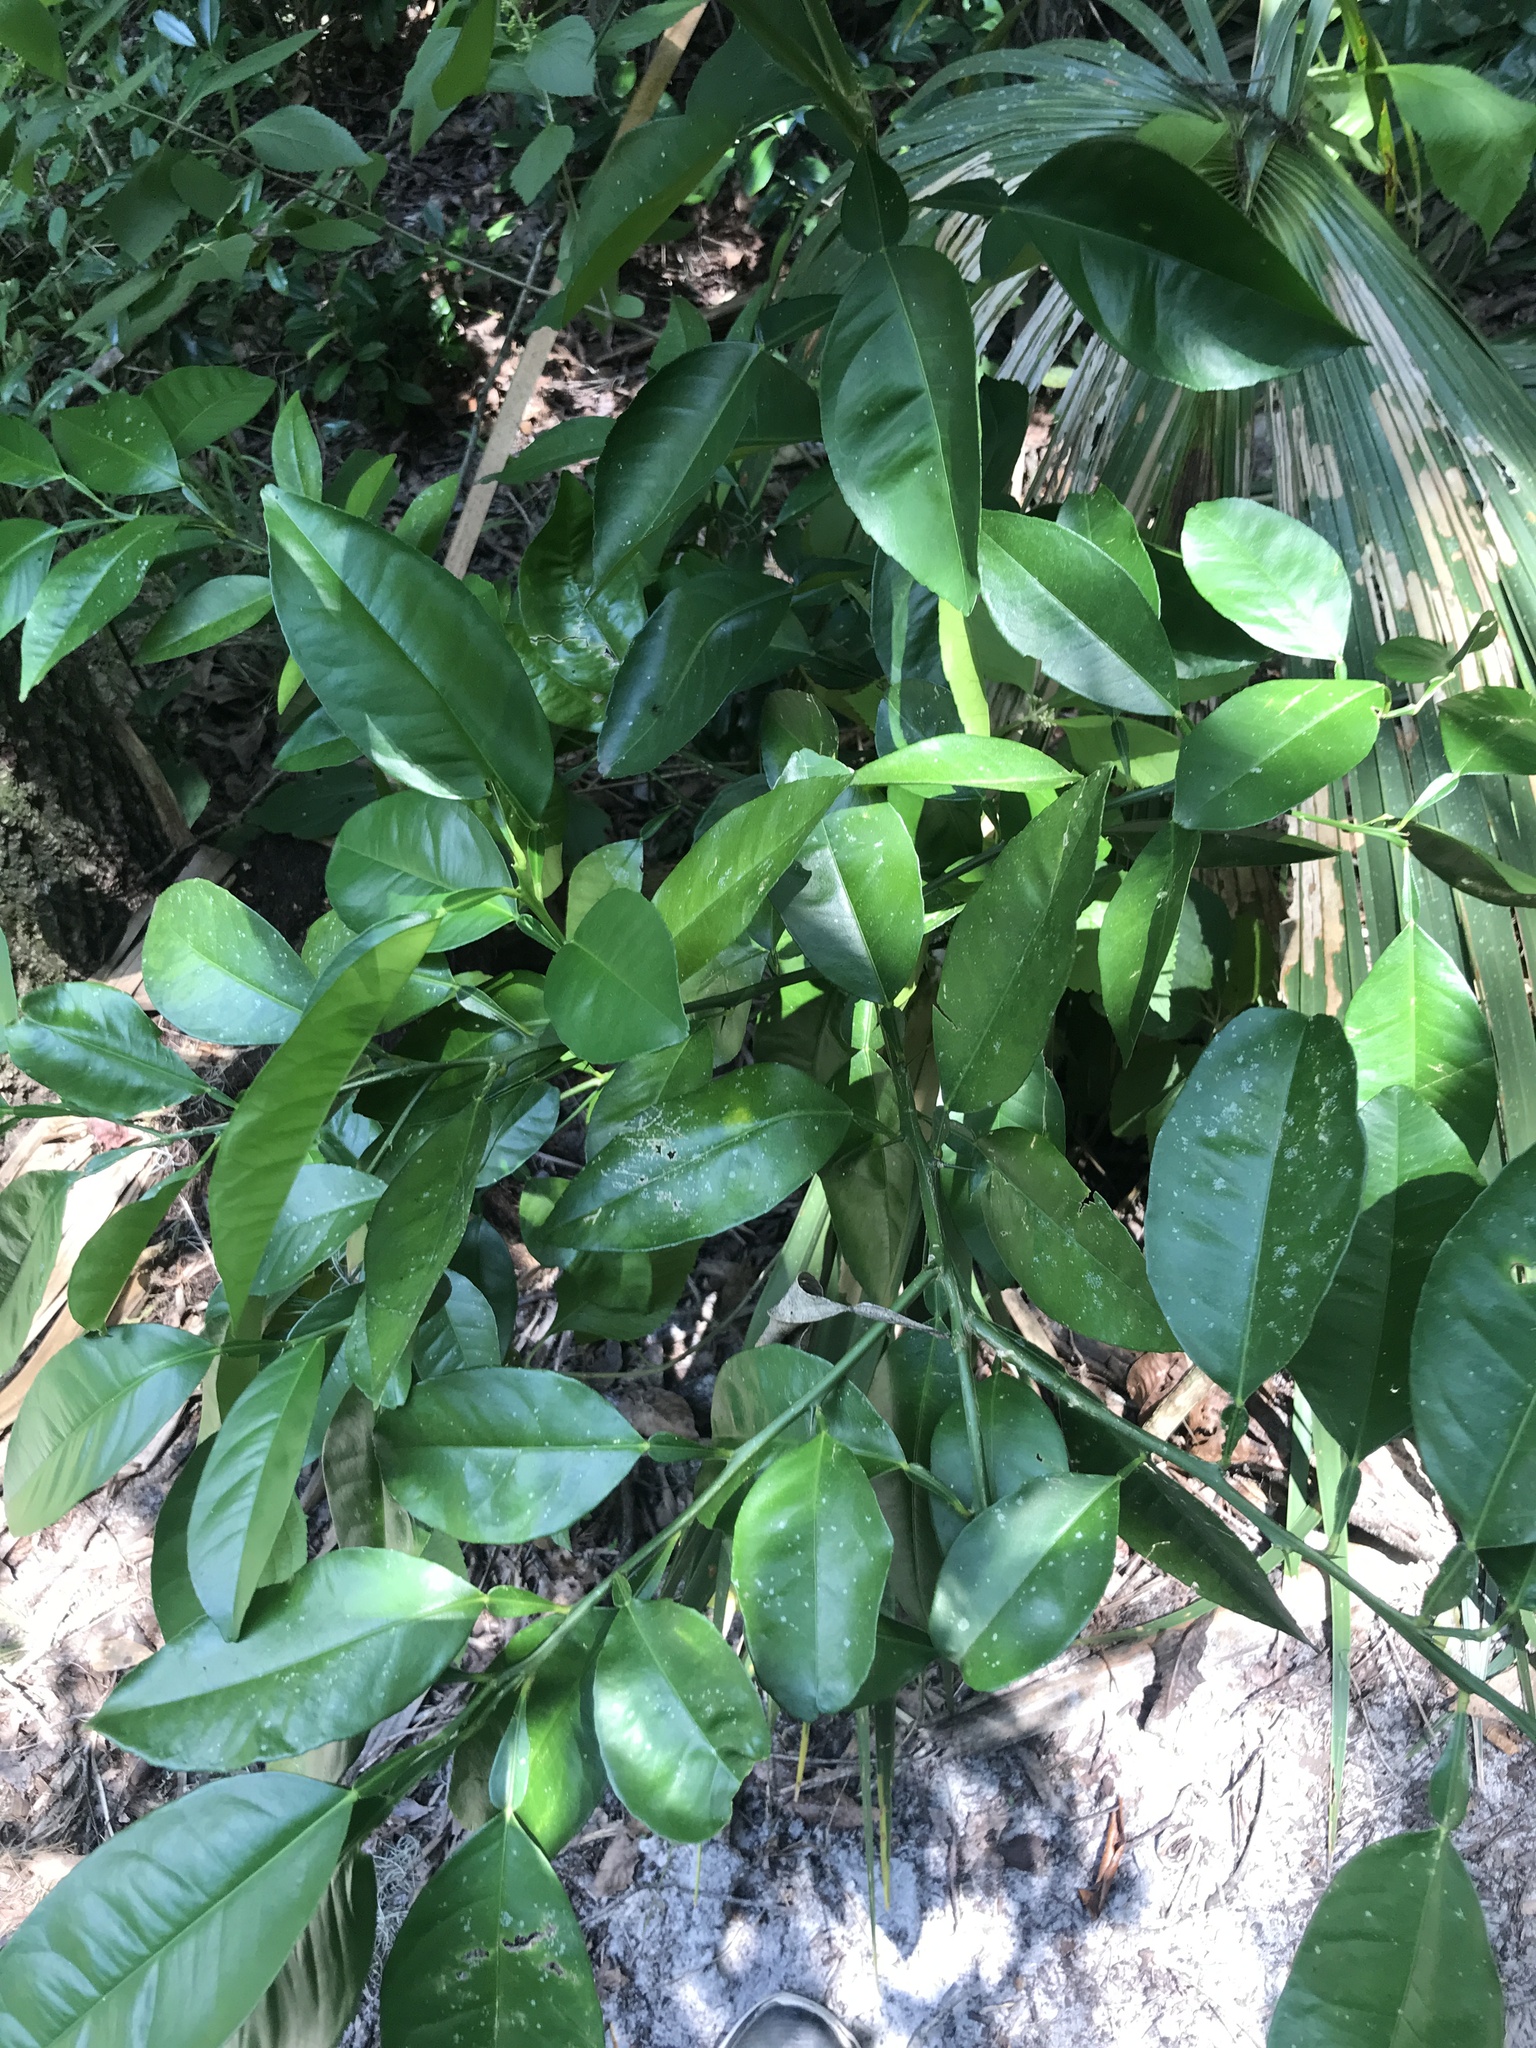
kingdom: Plantae
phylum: Tracheophyta
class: Magnoliopsida
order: Sapindales
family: Rutaceae
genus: Citrus
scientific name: Citrus aurantium
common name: Sour orange
